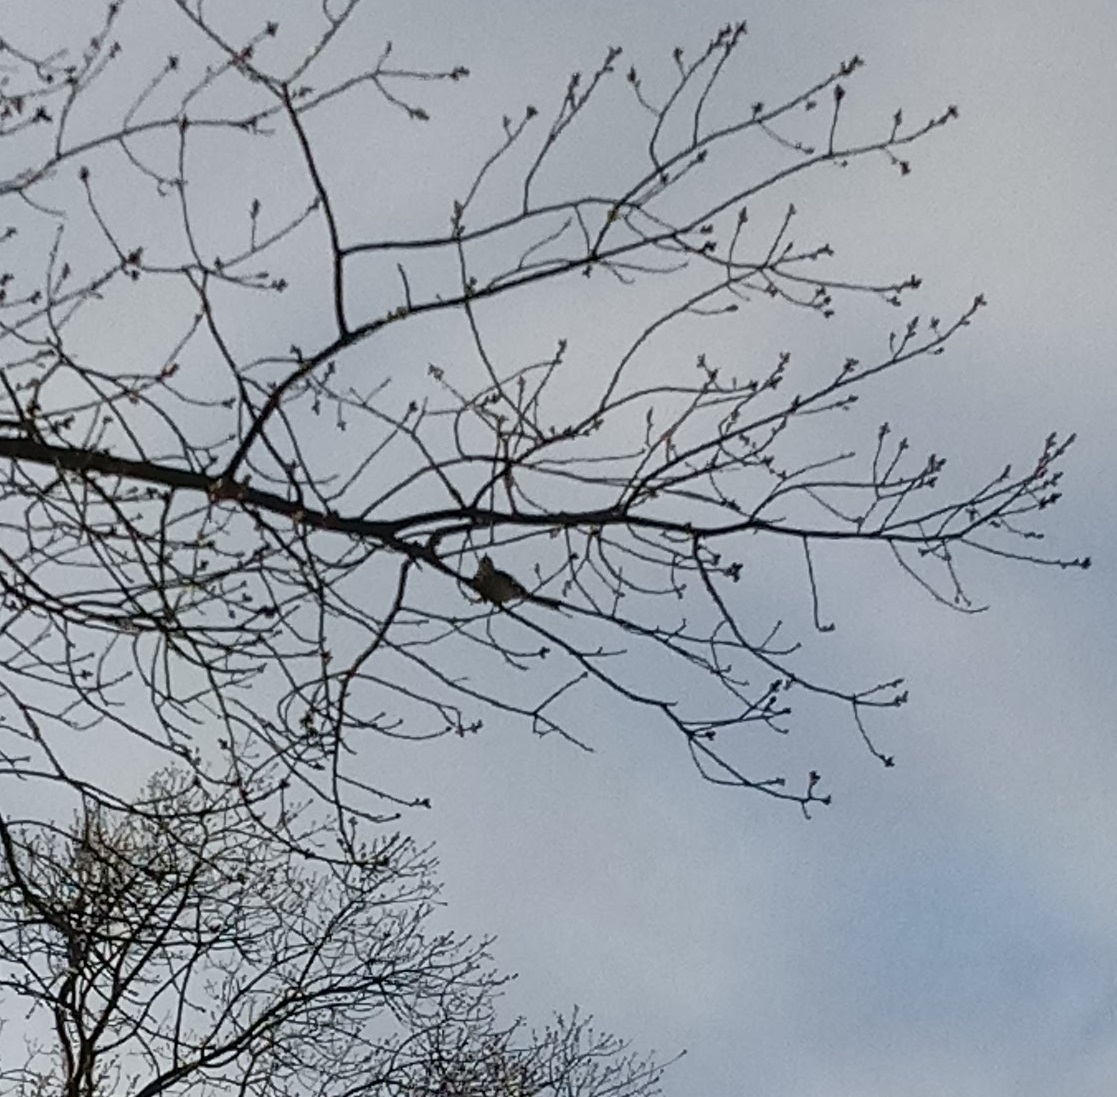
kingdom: Animalia
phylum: Chordata
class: Aves
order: Passeriformes
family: Mimidae
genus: Mimus
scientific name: Mimus polyglottos
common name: Northern mockingbird
